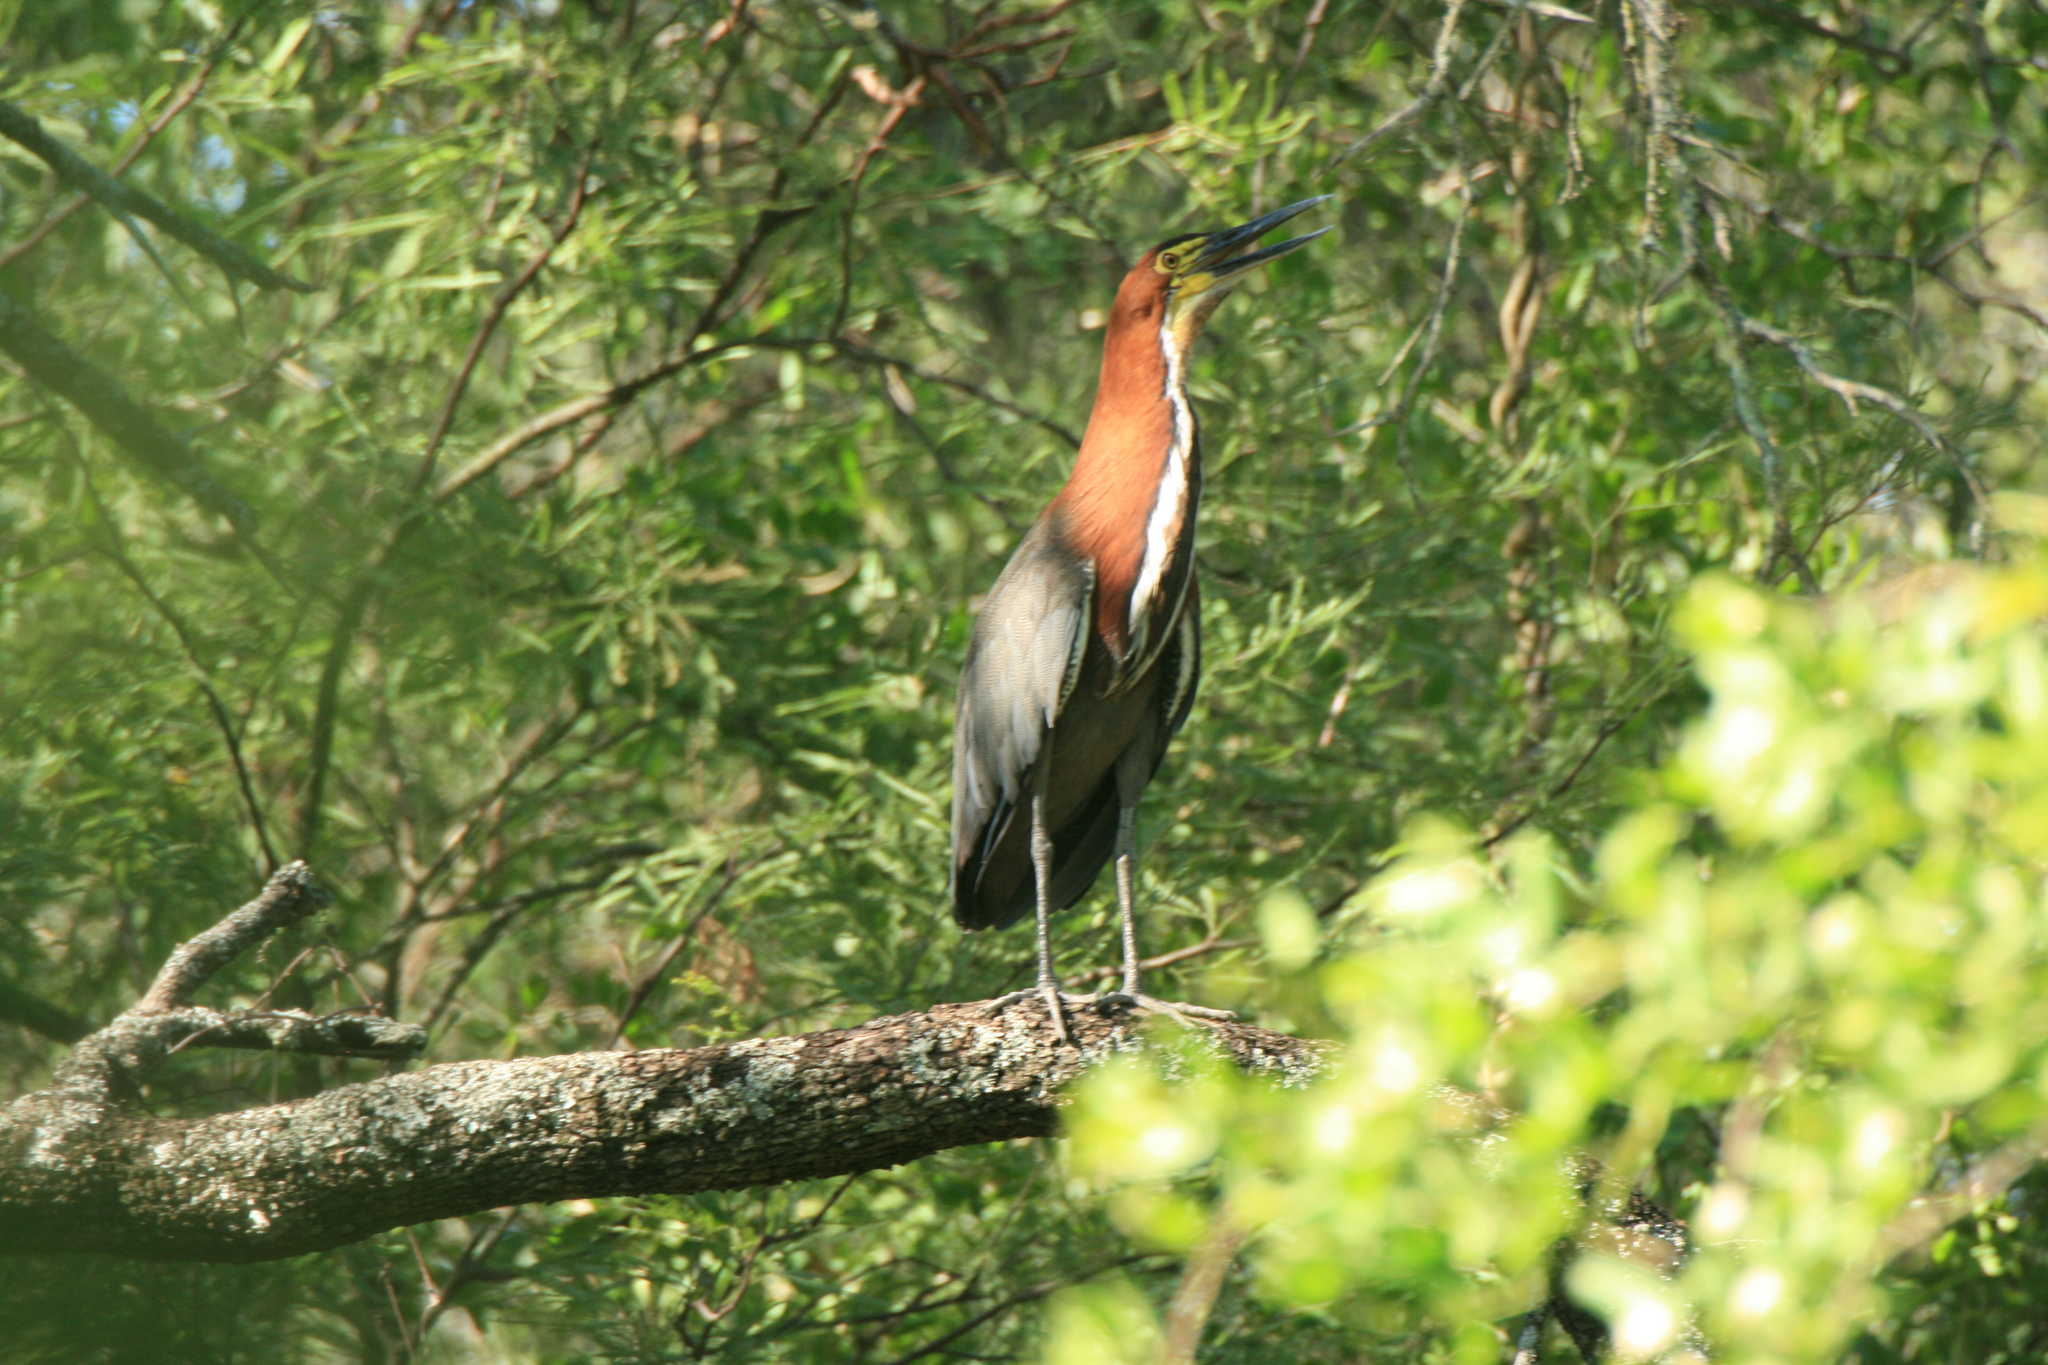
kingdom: Animalia
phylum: Chordata
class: Aves
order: Pelecaniformes
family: Ardeidae
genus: Tigrisoma
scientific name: Tigrisoma lineatum
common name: Rufescent tiger-heron
